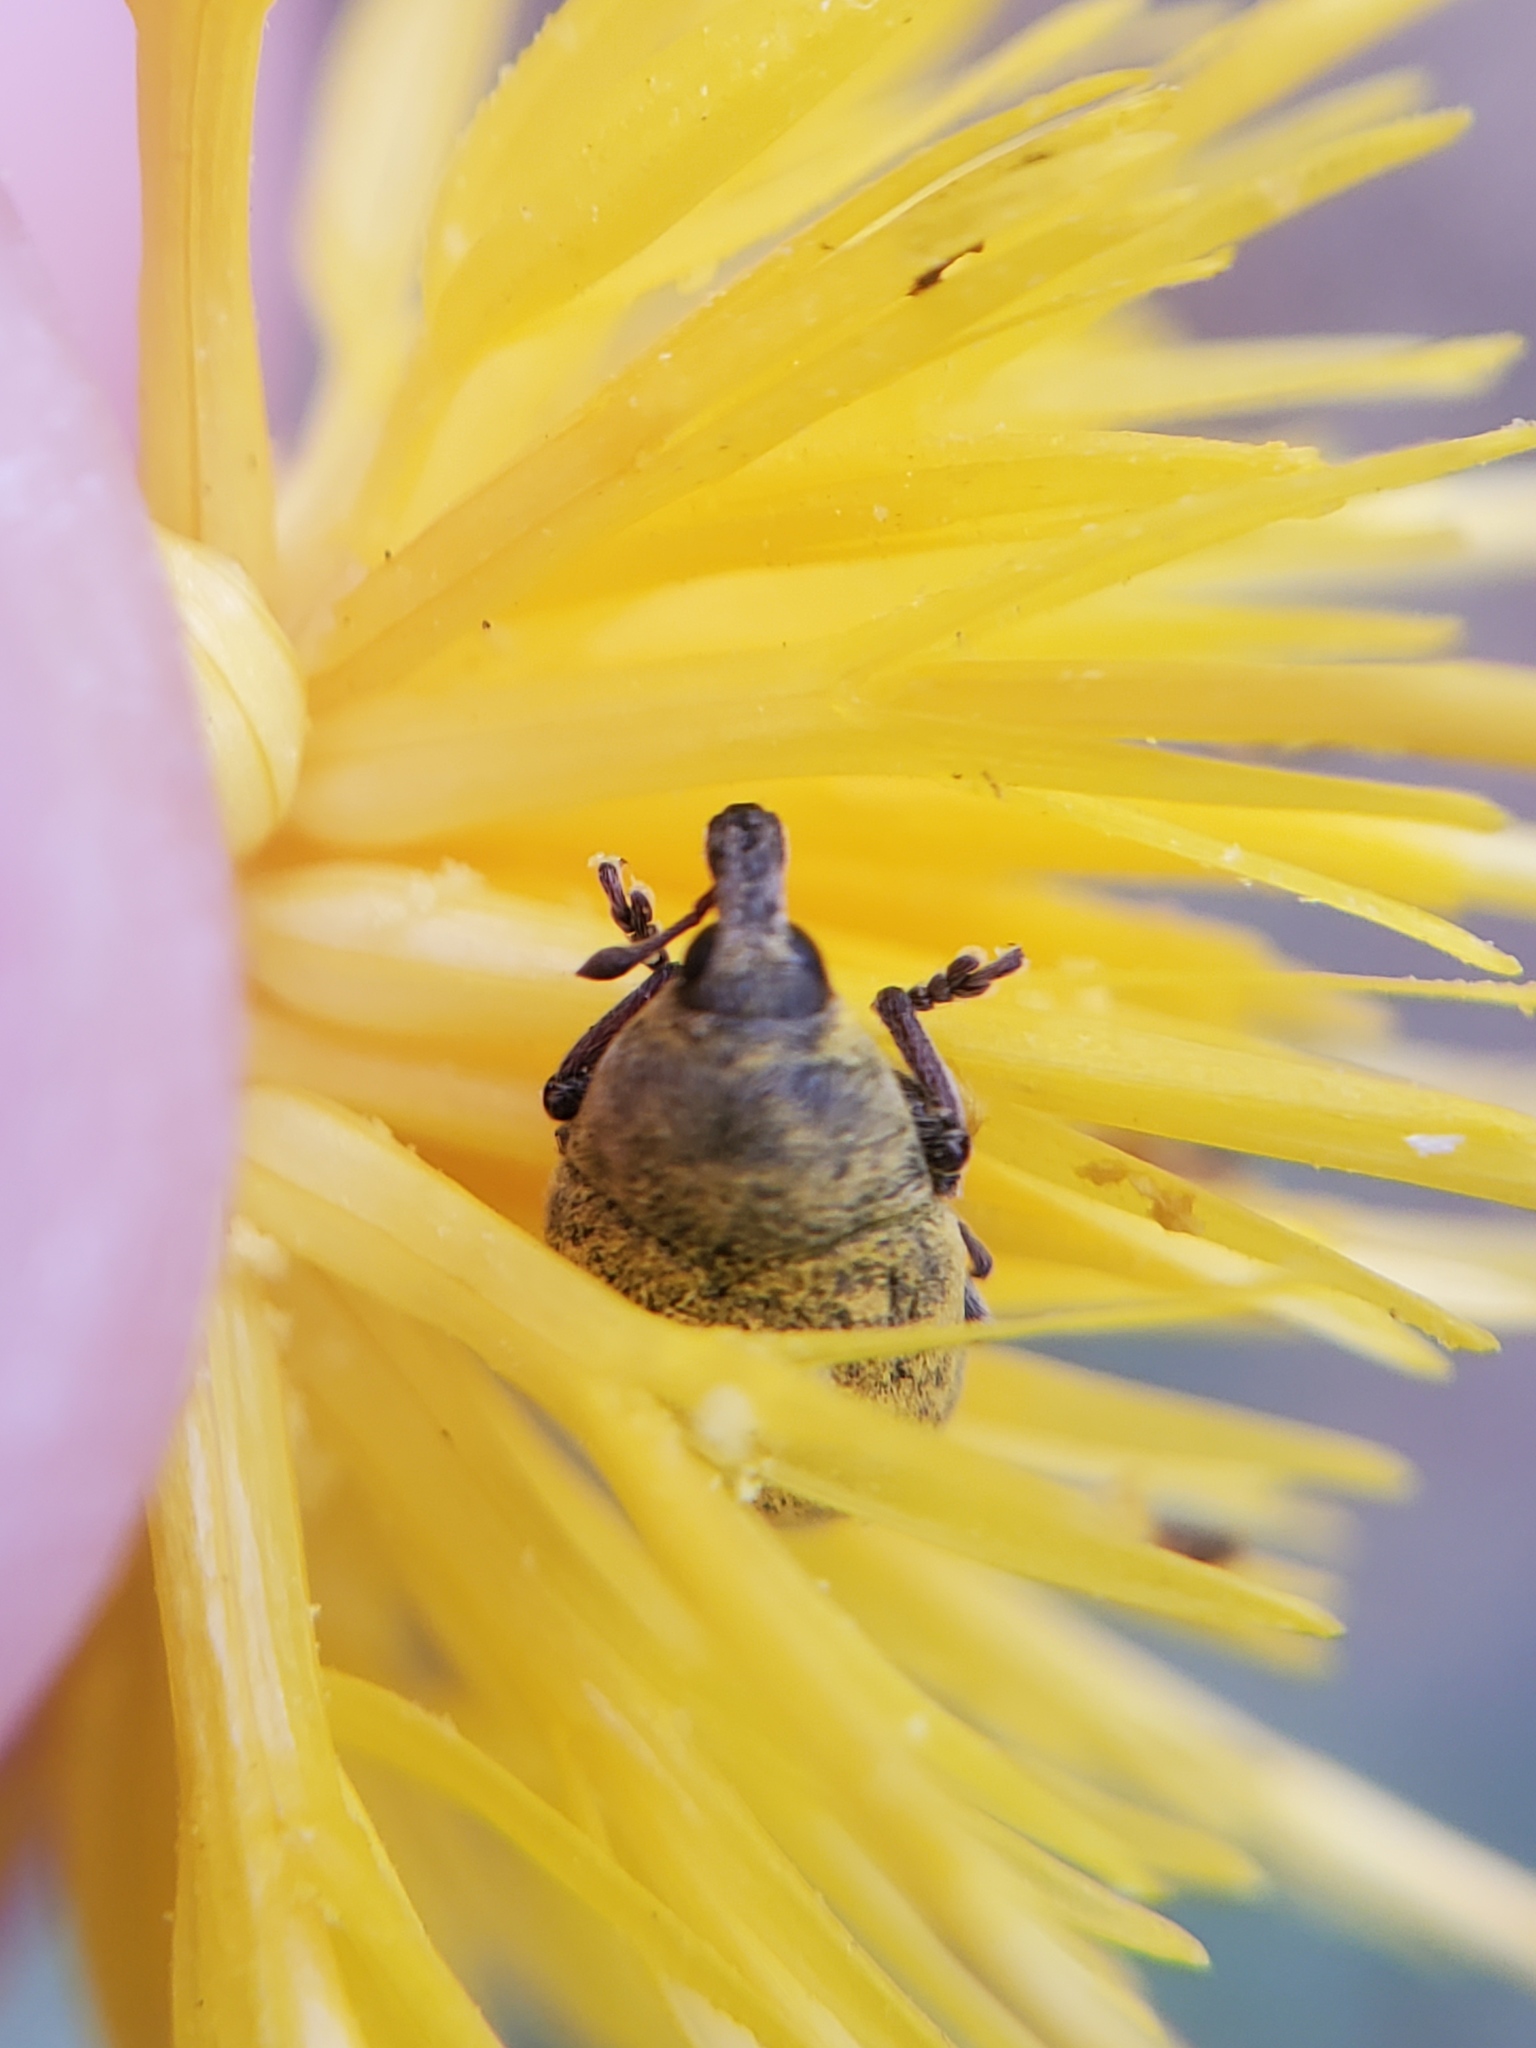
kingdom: Animalia
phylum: Arthropoda
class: Insecta
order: Coleoptera
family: Curculionidae
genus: Larinus
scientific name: Larinus curtus
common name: Weevil
